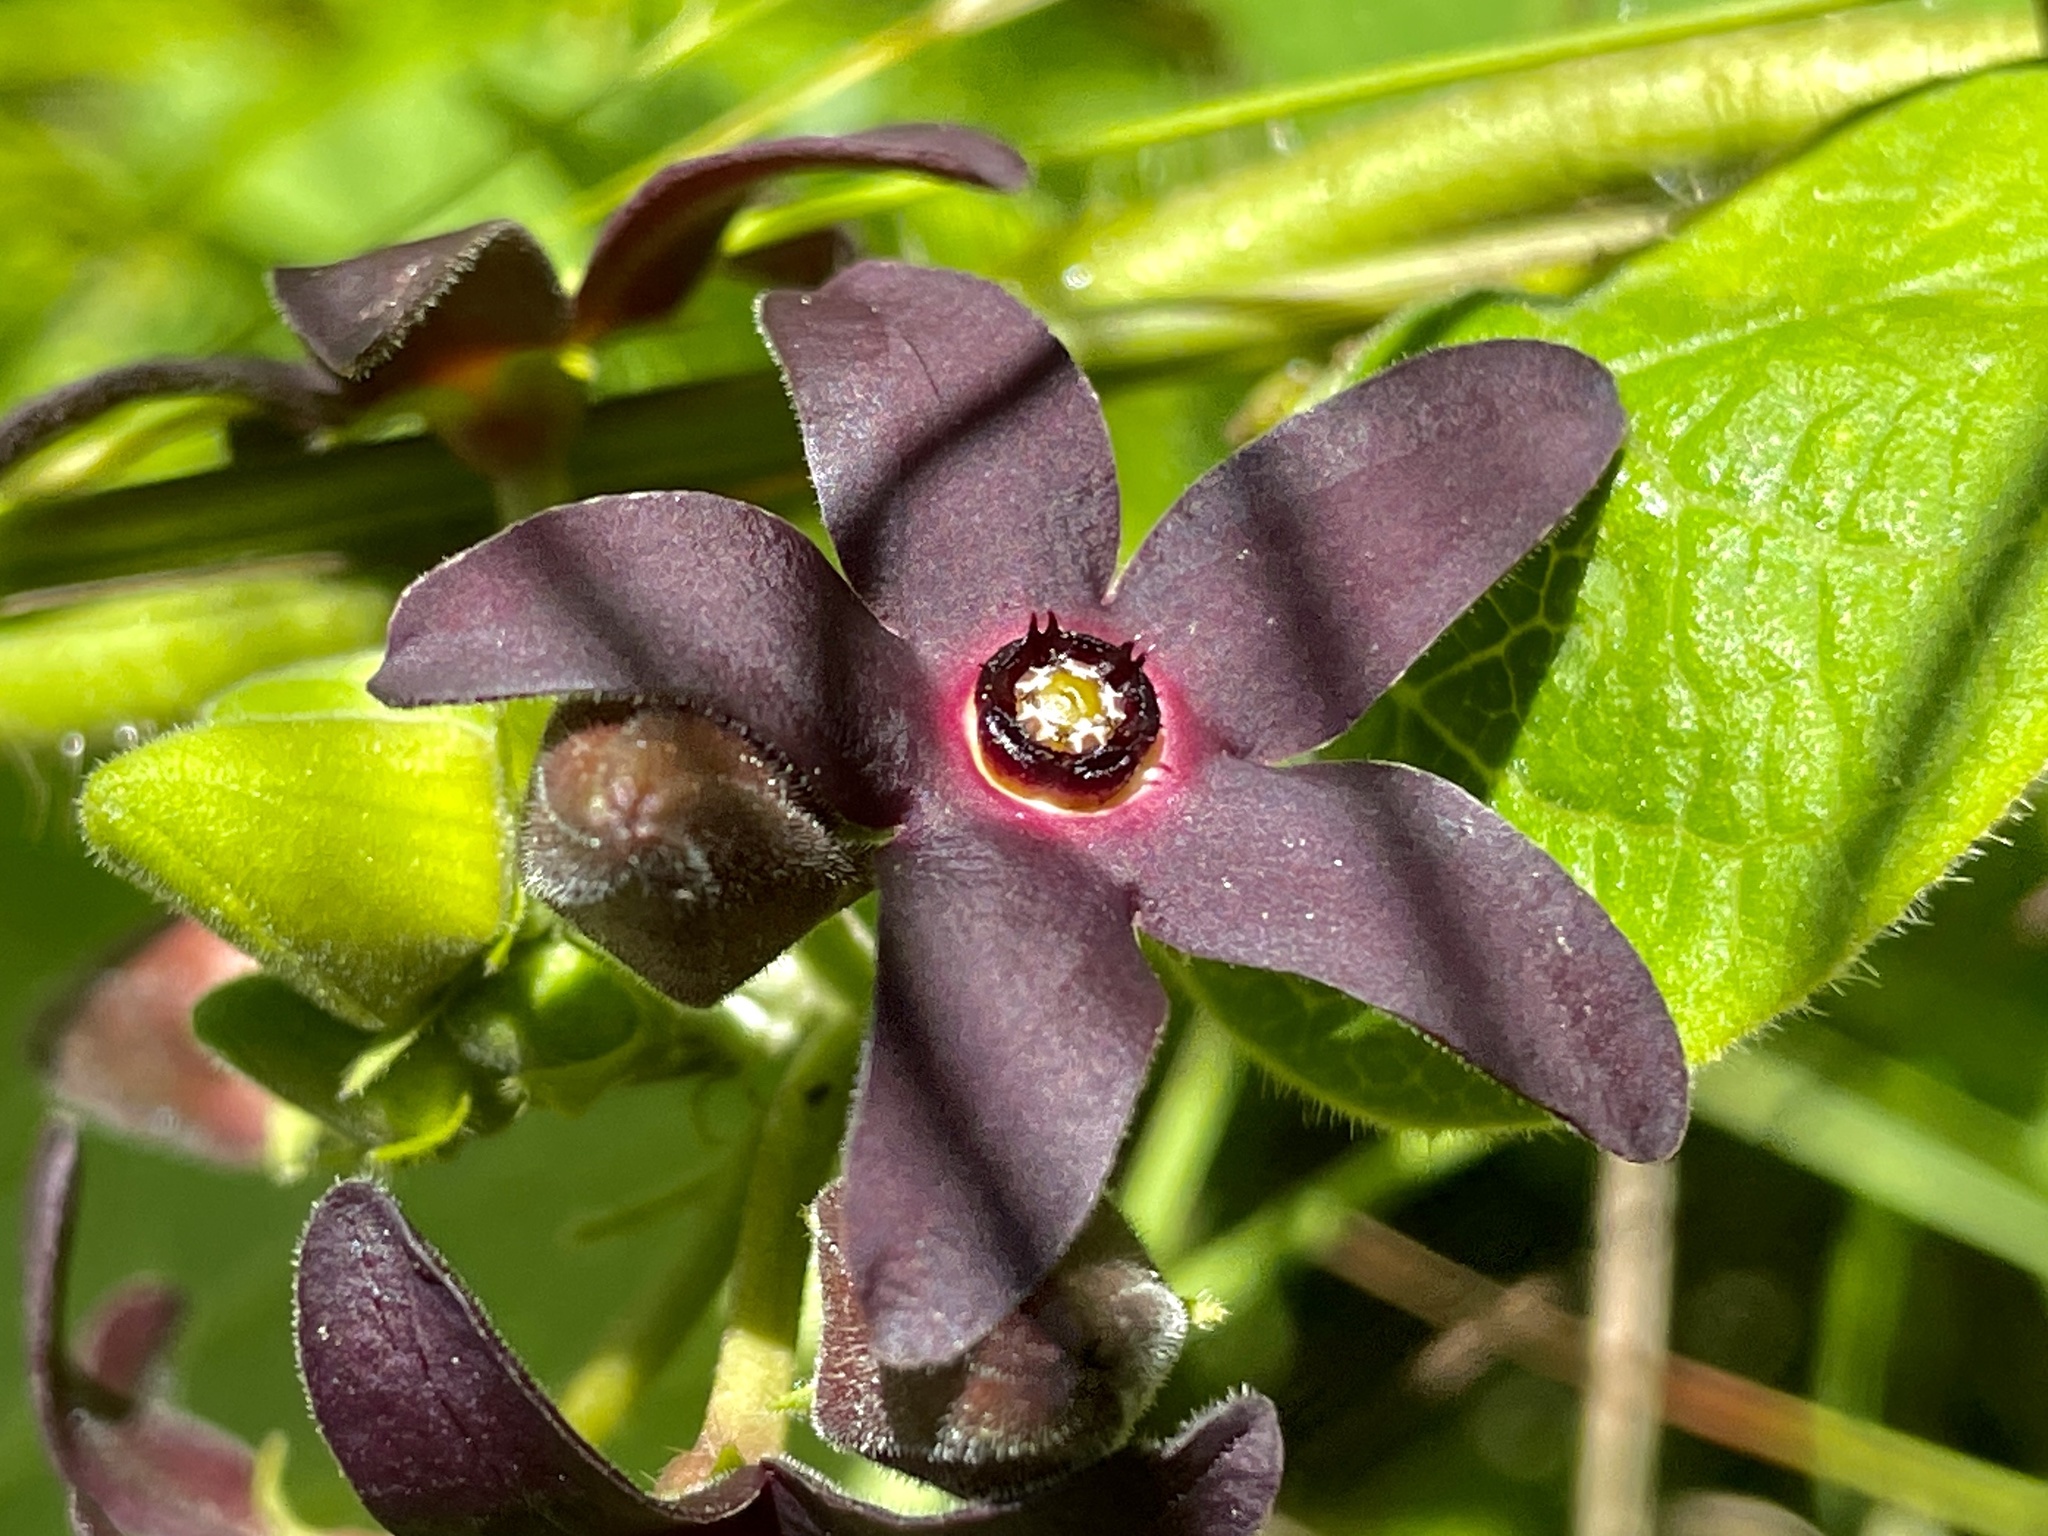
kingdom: Plantae
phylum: Tracheophyta
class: Magnoliopsida
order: Gentianales
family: Apocynaceae
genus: Matelea
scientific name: Matelea carolinensis
